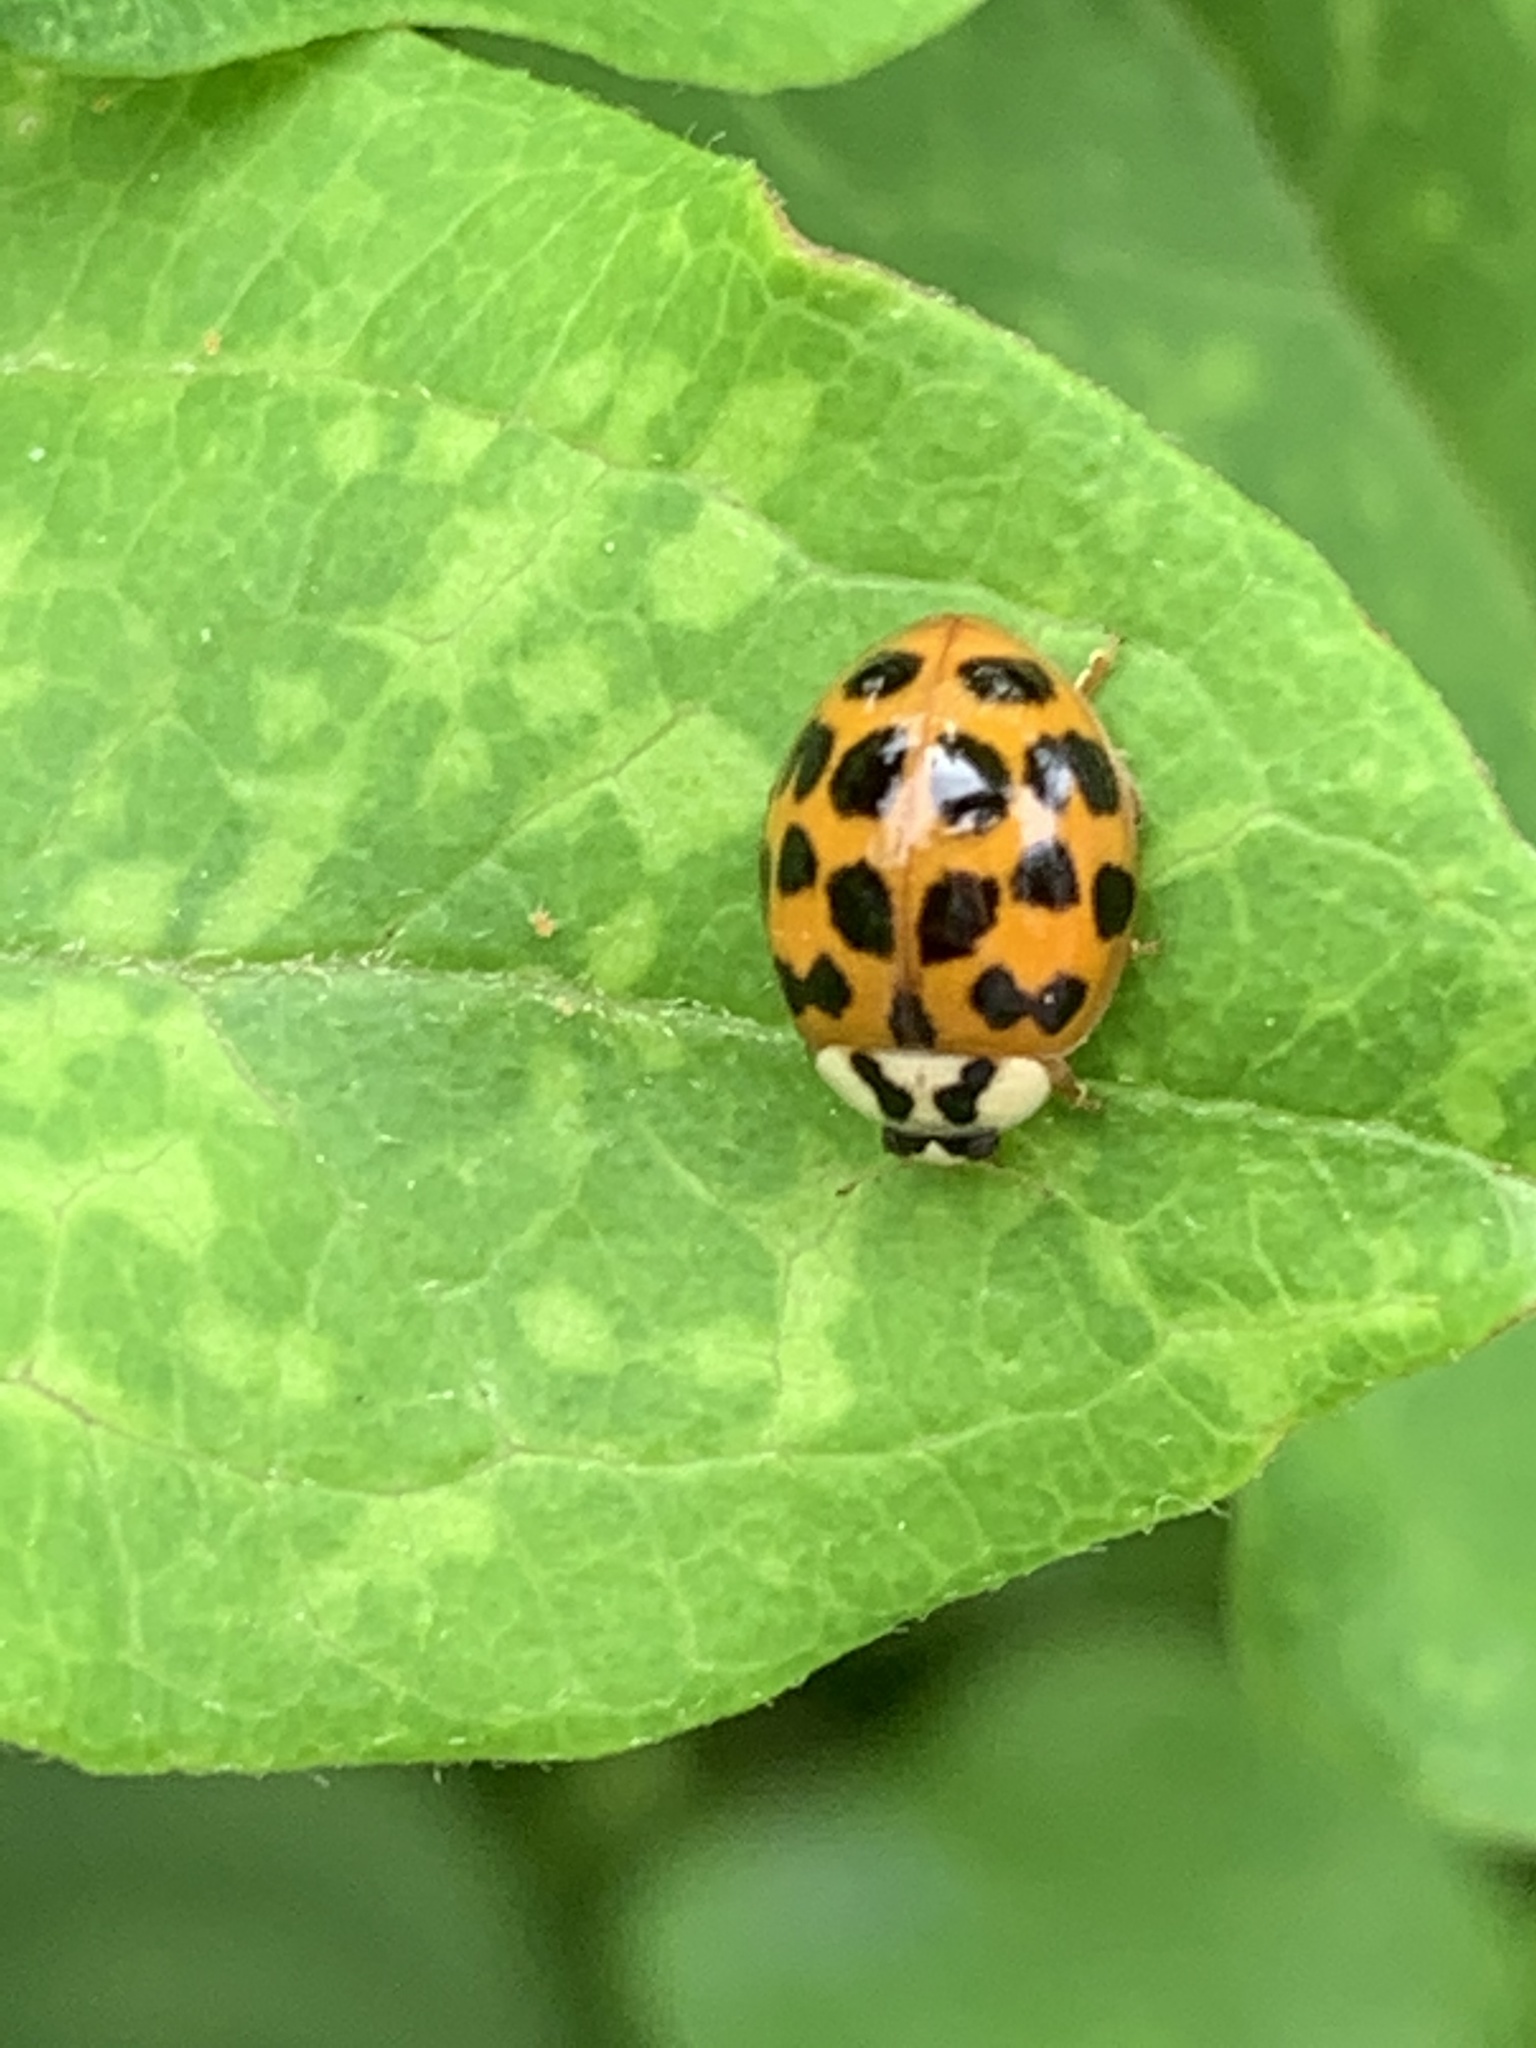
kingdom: Animalia
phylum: Arthropoda
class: Insecta
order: Coleoptera
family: Coccinellidae
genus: Harmonia
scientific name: Harmonia axyridis
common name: Harlequin ladybird
